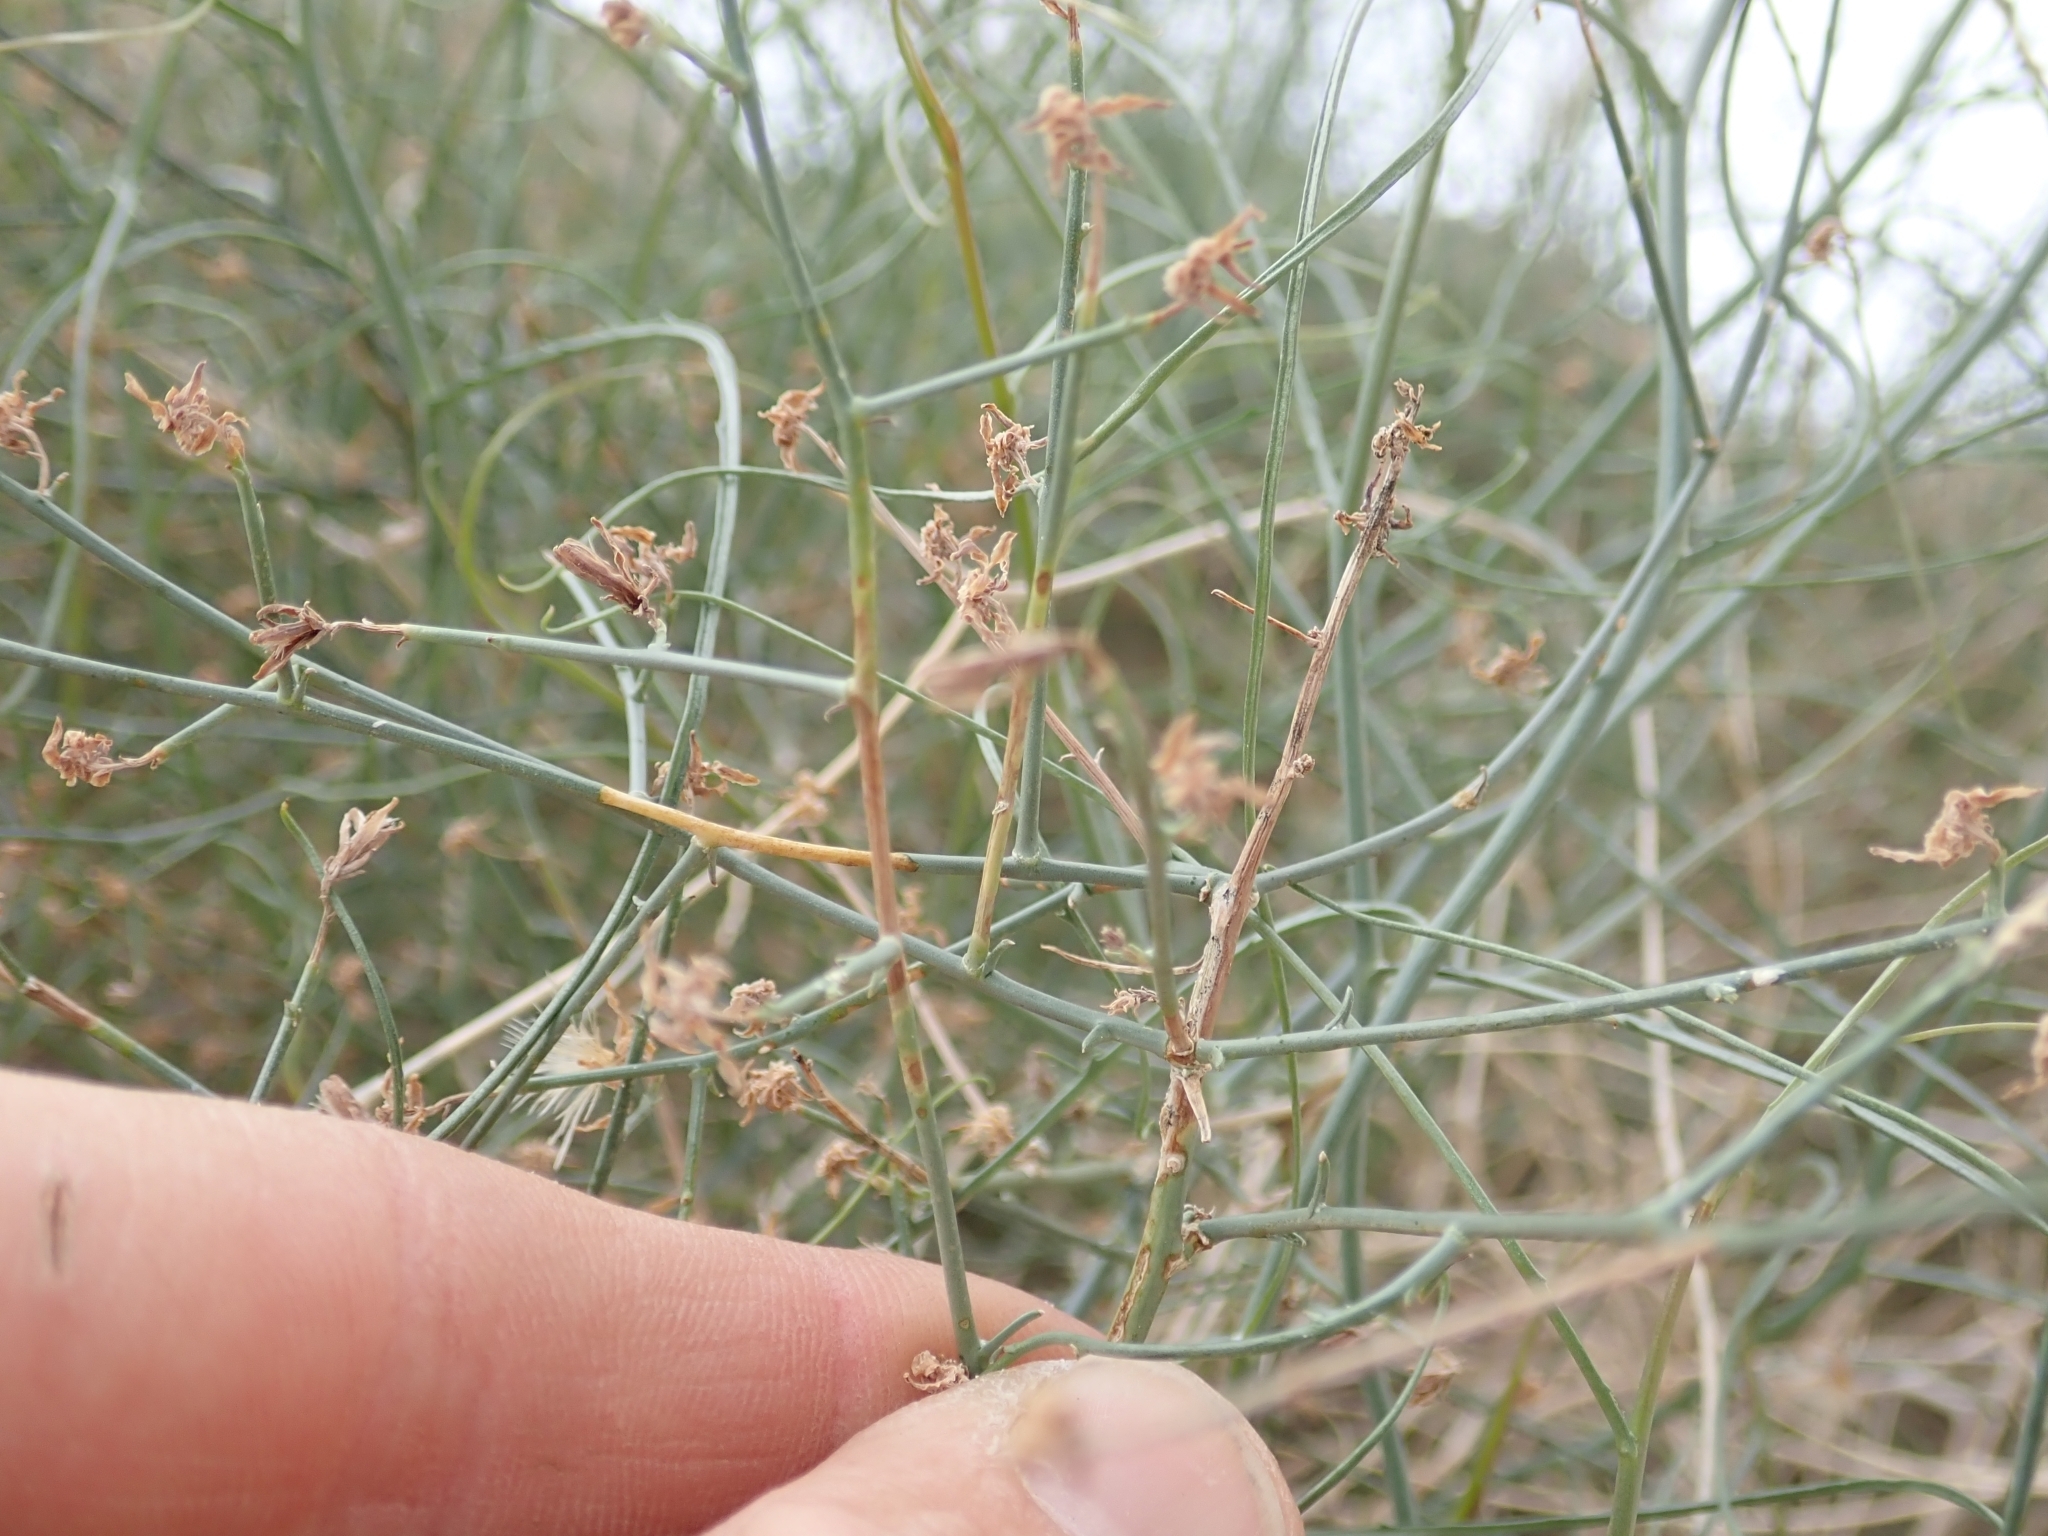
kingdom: Plantae
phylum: Tracheophyta
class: Magnoliopsida
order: Asterales
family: Asteraceae
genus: Stephanomeria
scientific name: Stephanomeria pauciflora
